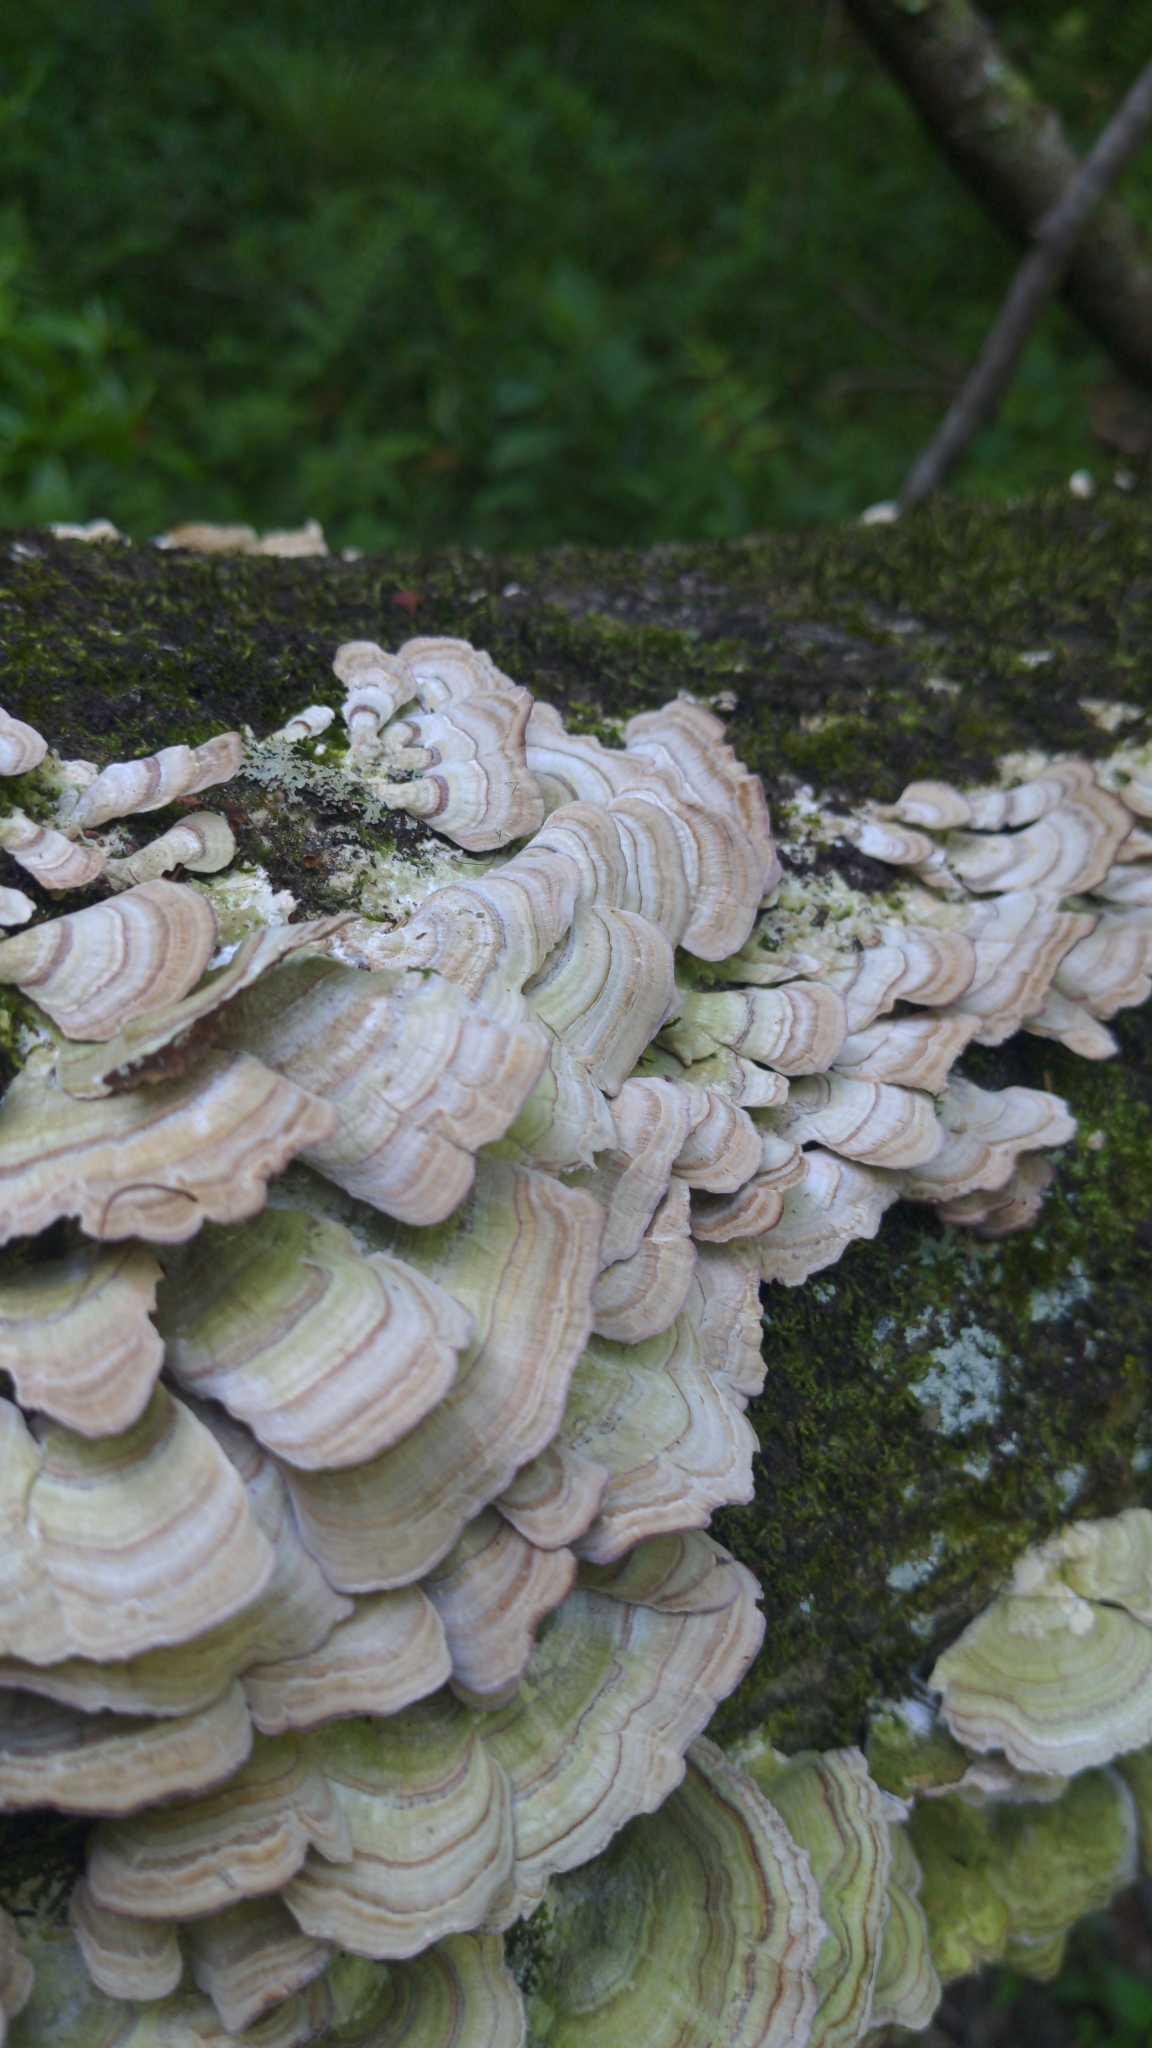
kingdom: Fungi
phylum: Basidiomycota
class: Agaricomycetes
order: Hymenochaetales
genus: Trichaptum
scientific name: Trichaptum biforme
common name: Violet-toothed polypore
